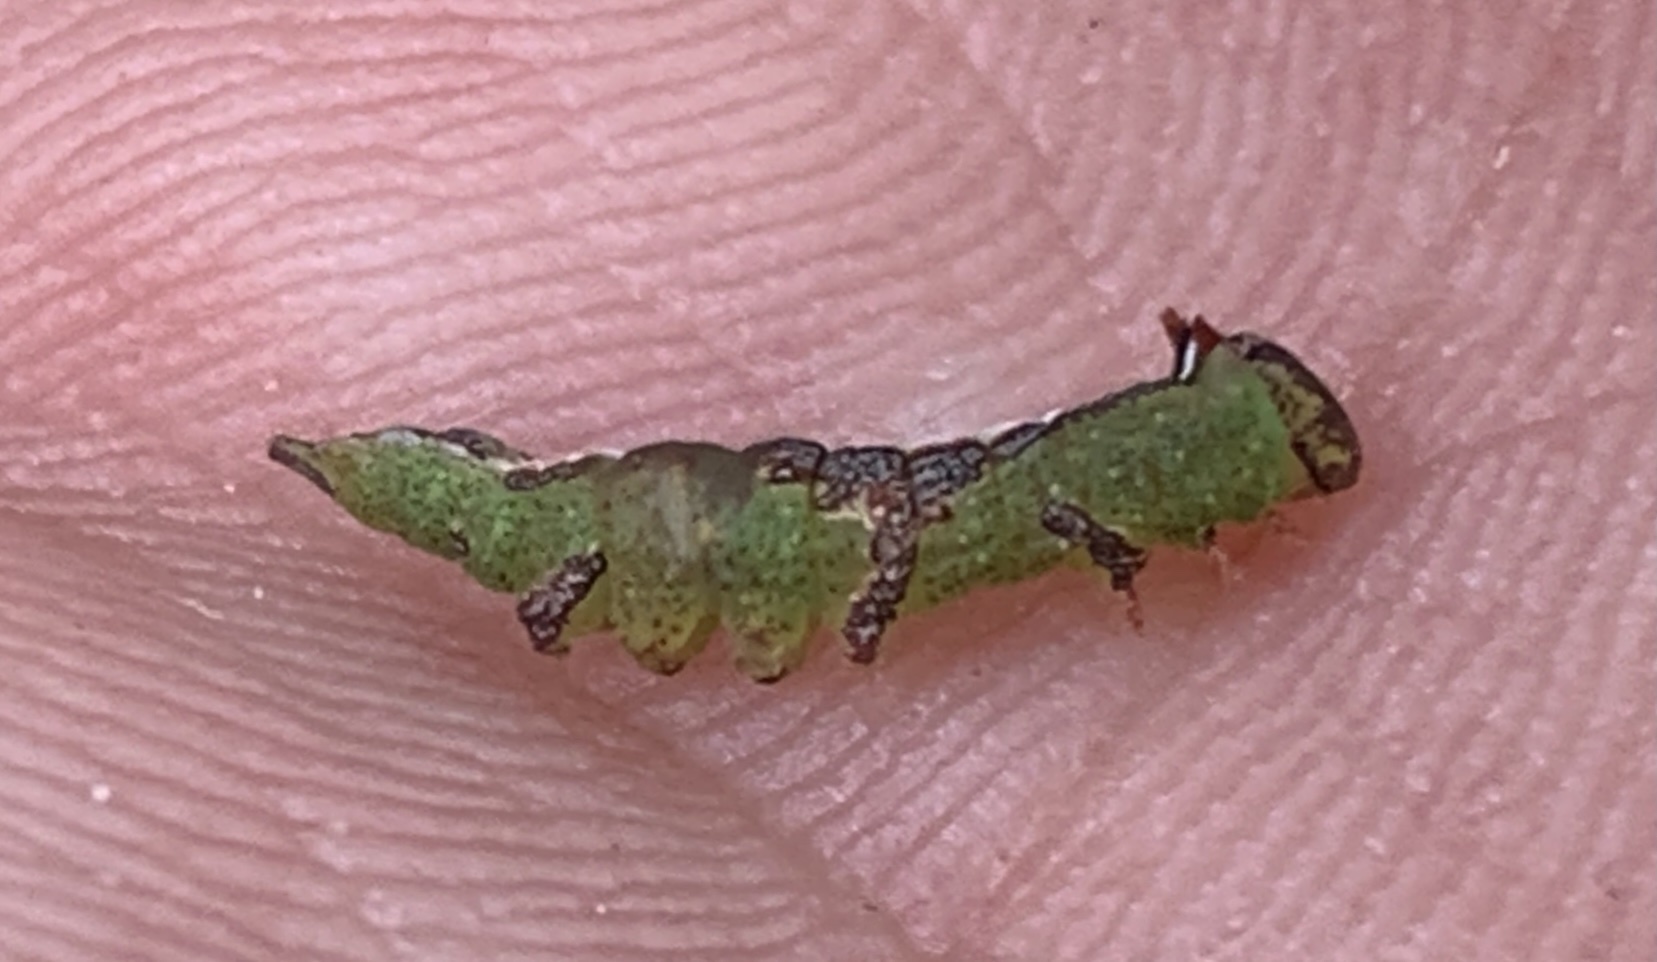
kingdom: Animalia
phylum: Arthropoda
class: Insecta
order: Lepidoptera
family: Notodontidae
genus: Heterocampa
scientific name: Heterocampa umbrata
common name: White-blotched heterocampa
